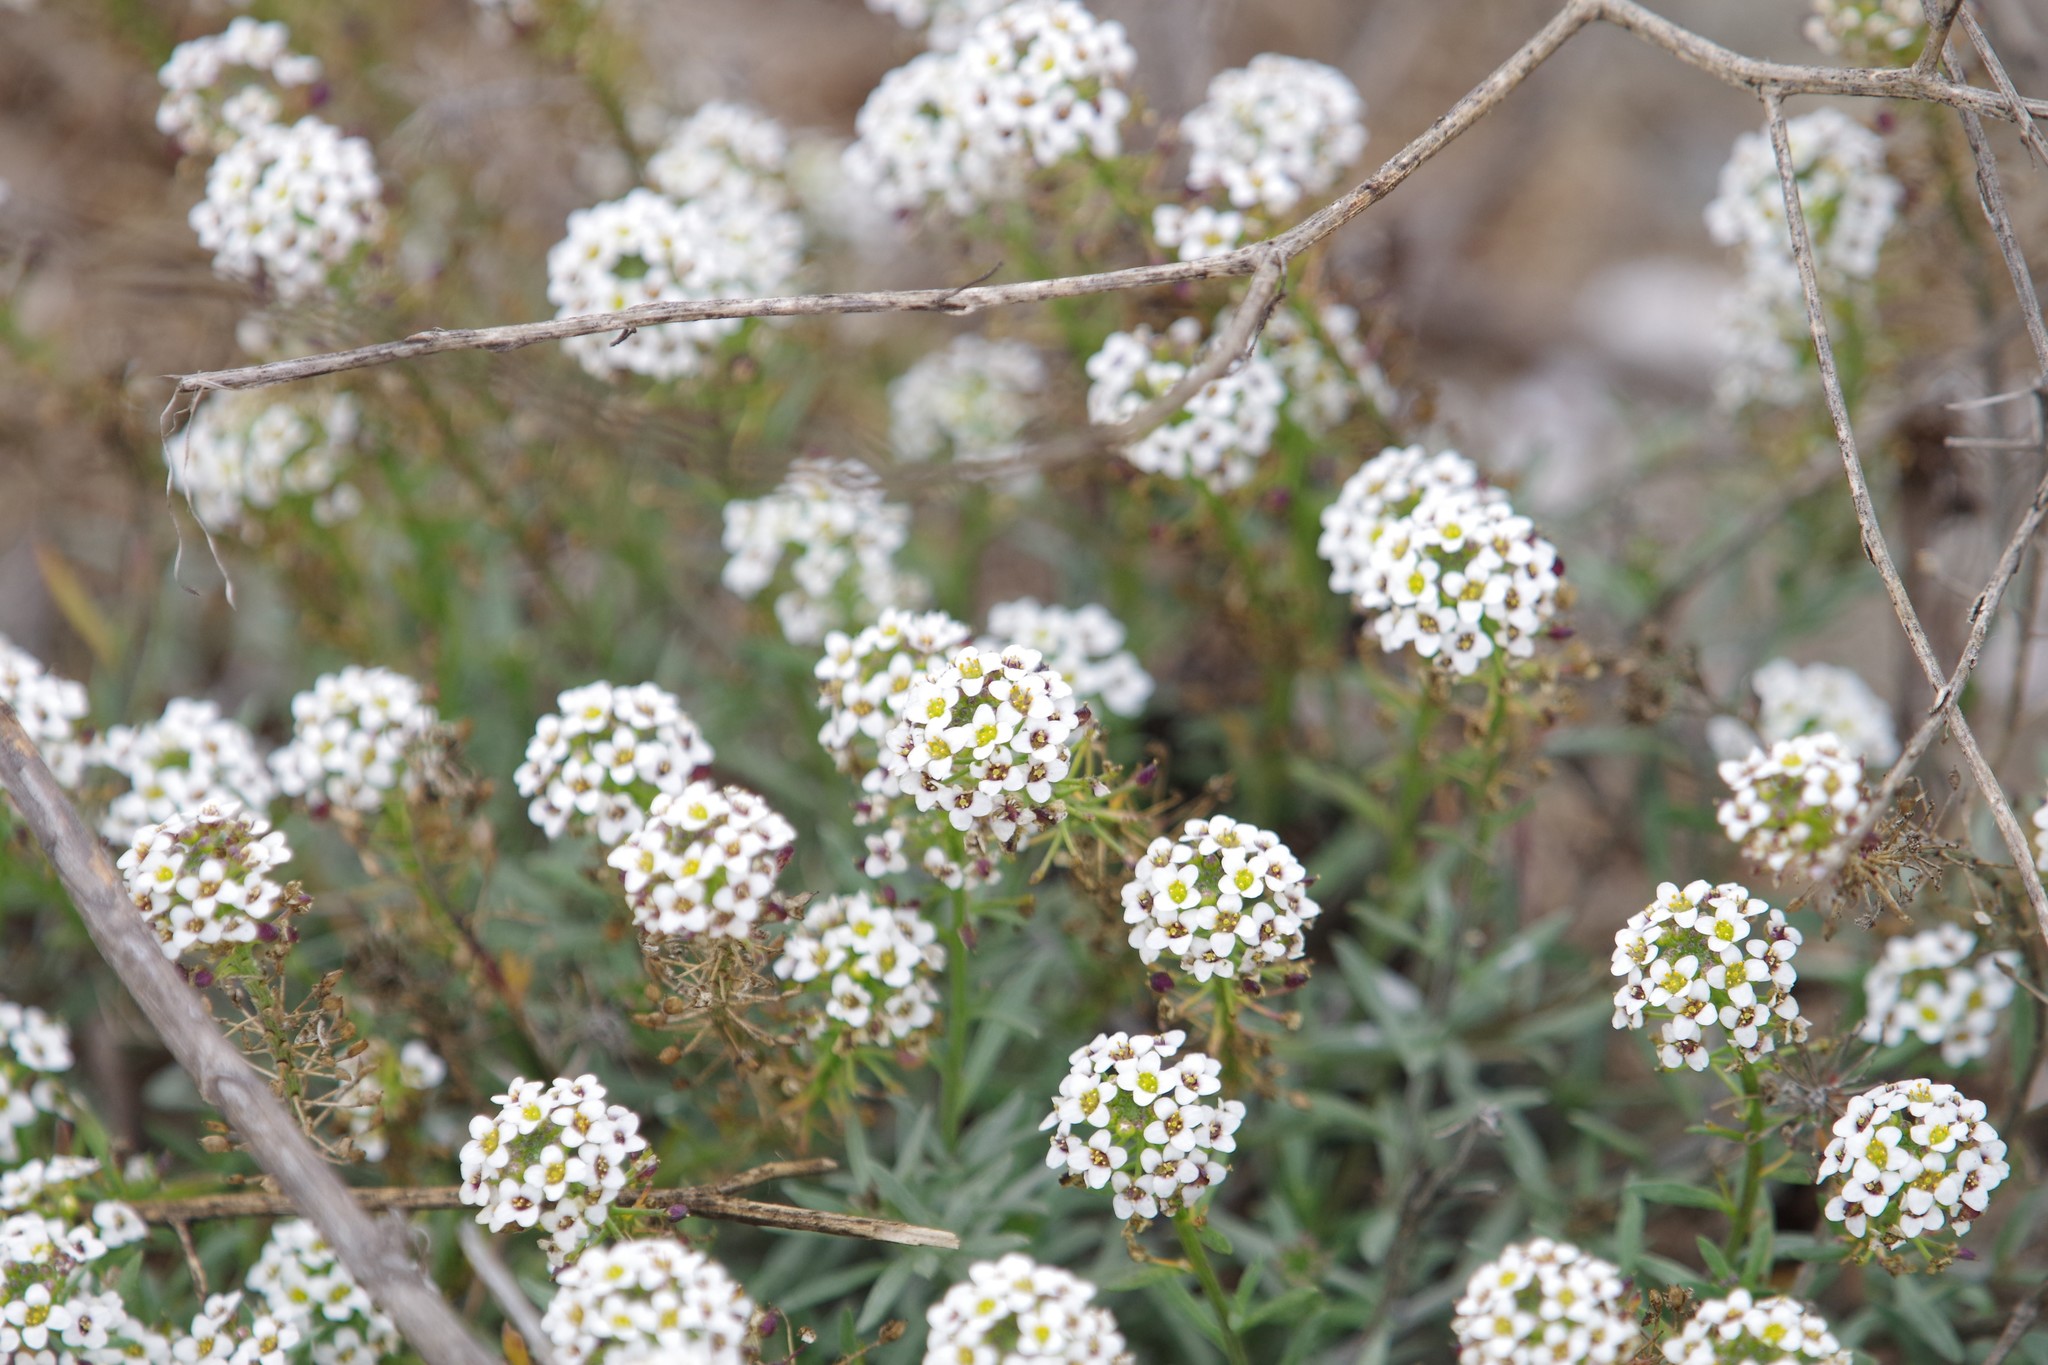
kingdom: Plantae
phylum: Tracheophyta
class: Magnoliopsida
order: Brassicales
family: Brassicaceae
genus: Lobularia
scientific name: Lobularia maritima
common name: Sweet alison
